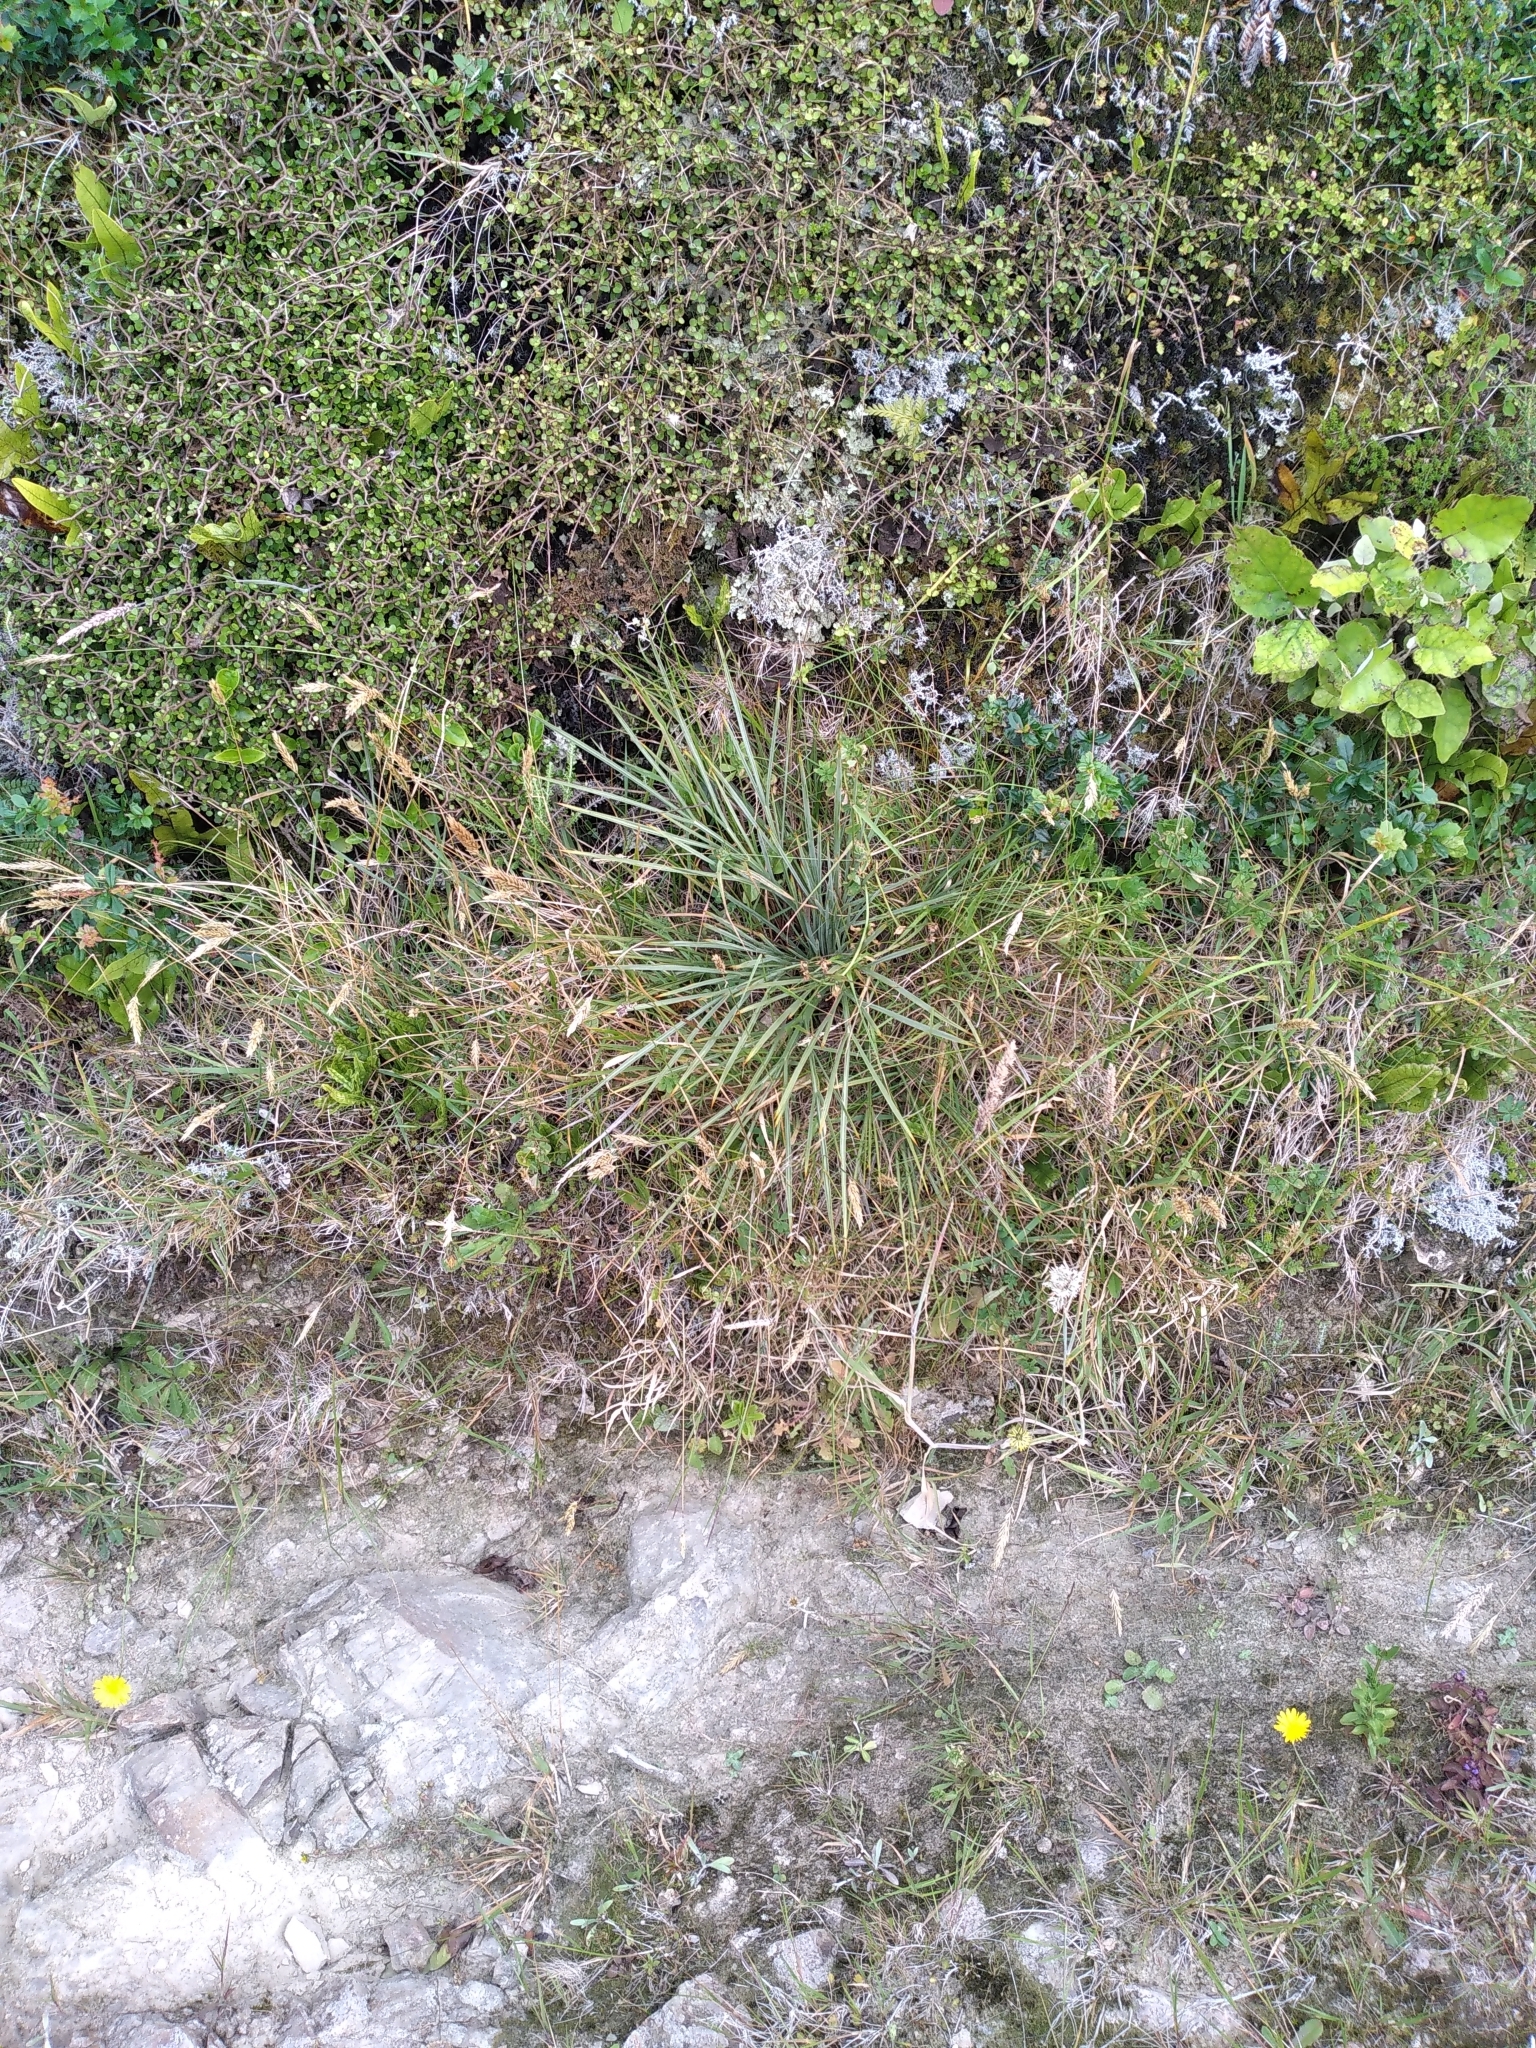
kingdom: Plantae
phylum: Tracheophyta
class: Magnoliopsida
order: Apiales
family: Apiaceae
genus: Aciphylla
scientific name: Aciphylla squarrosa
